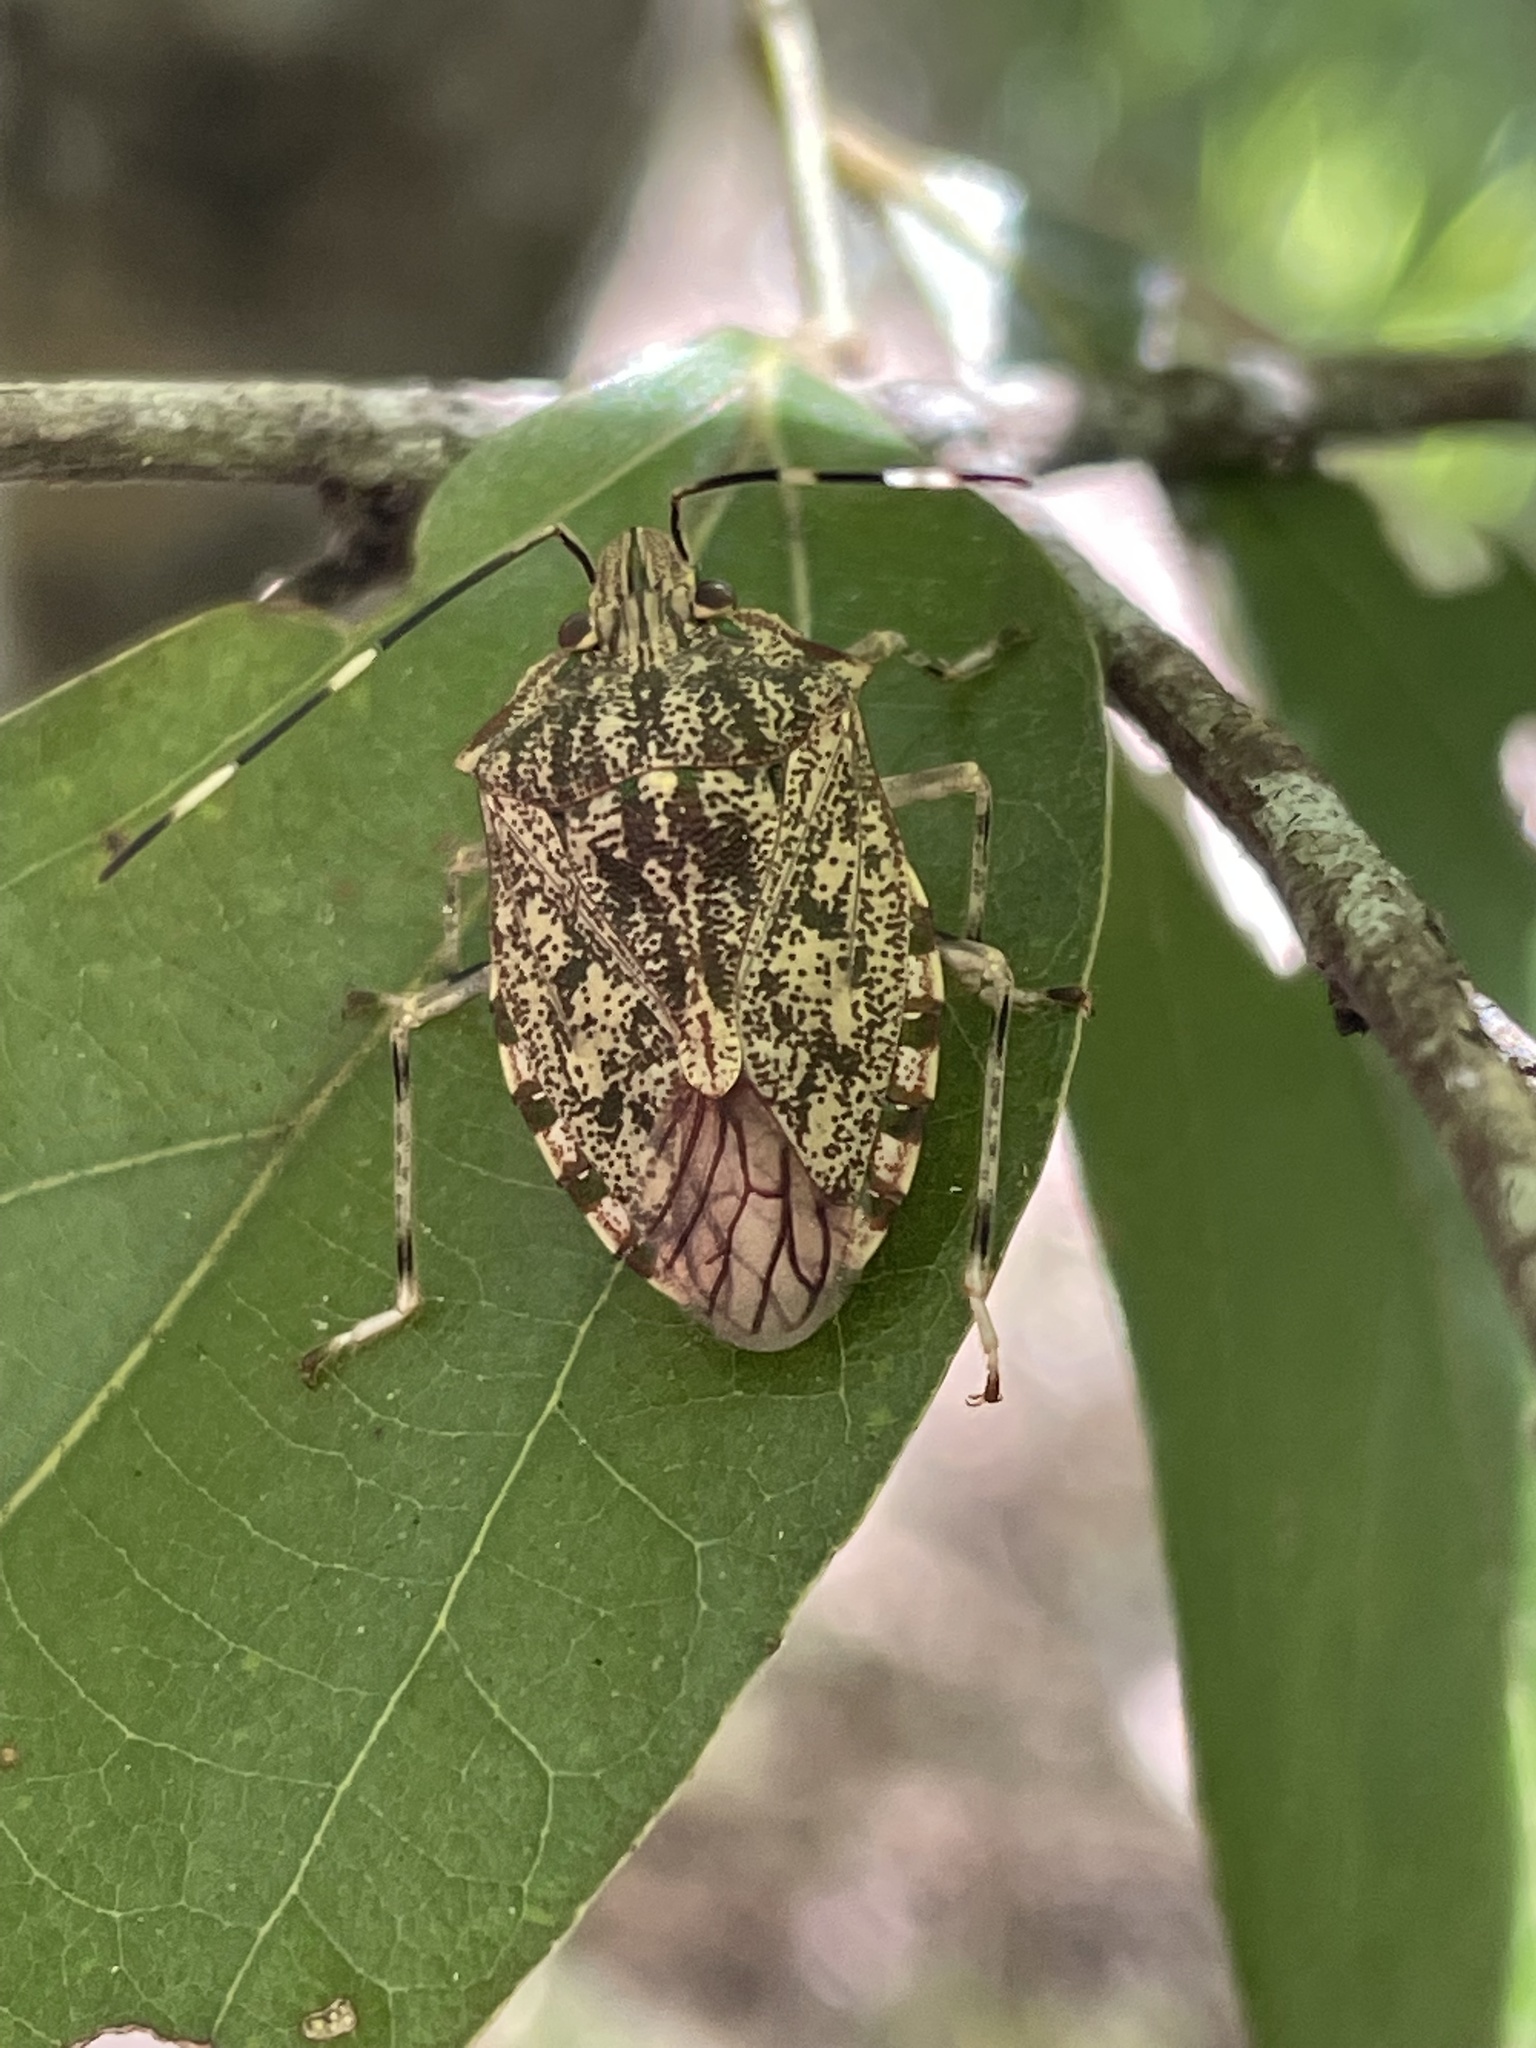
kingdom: Animalia
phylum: Arthropoda
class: Insecta
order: Hemiptera
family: Pentatomidae
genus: Bathrus
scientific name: Bathrus
